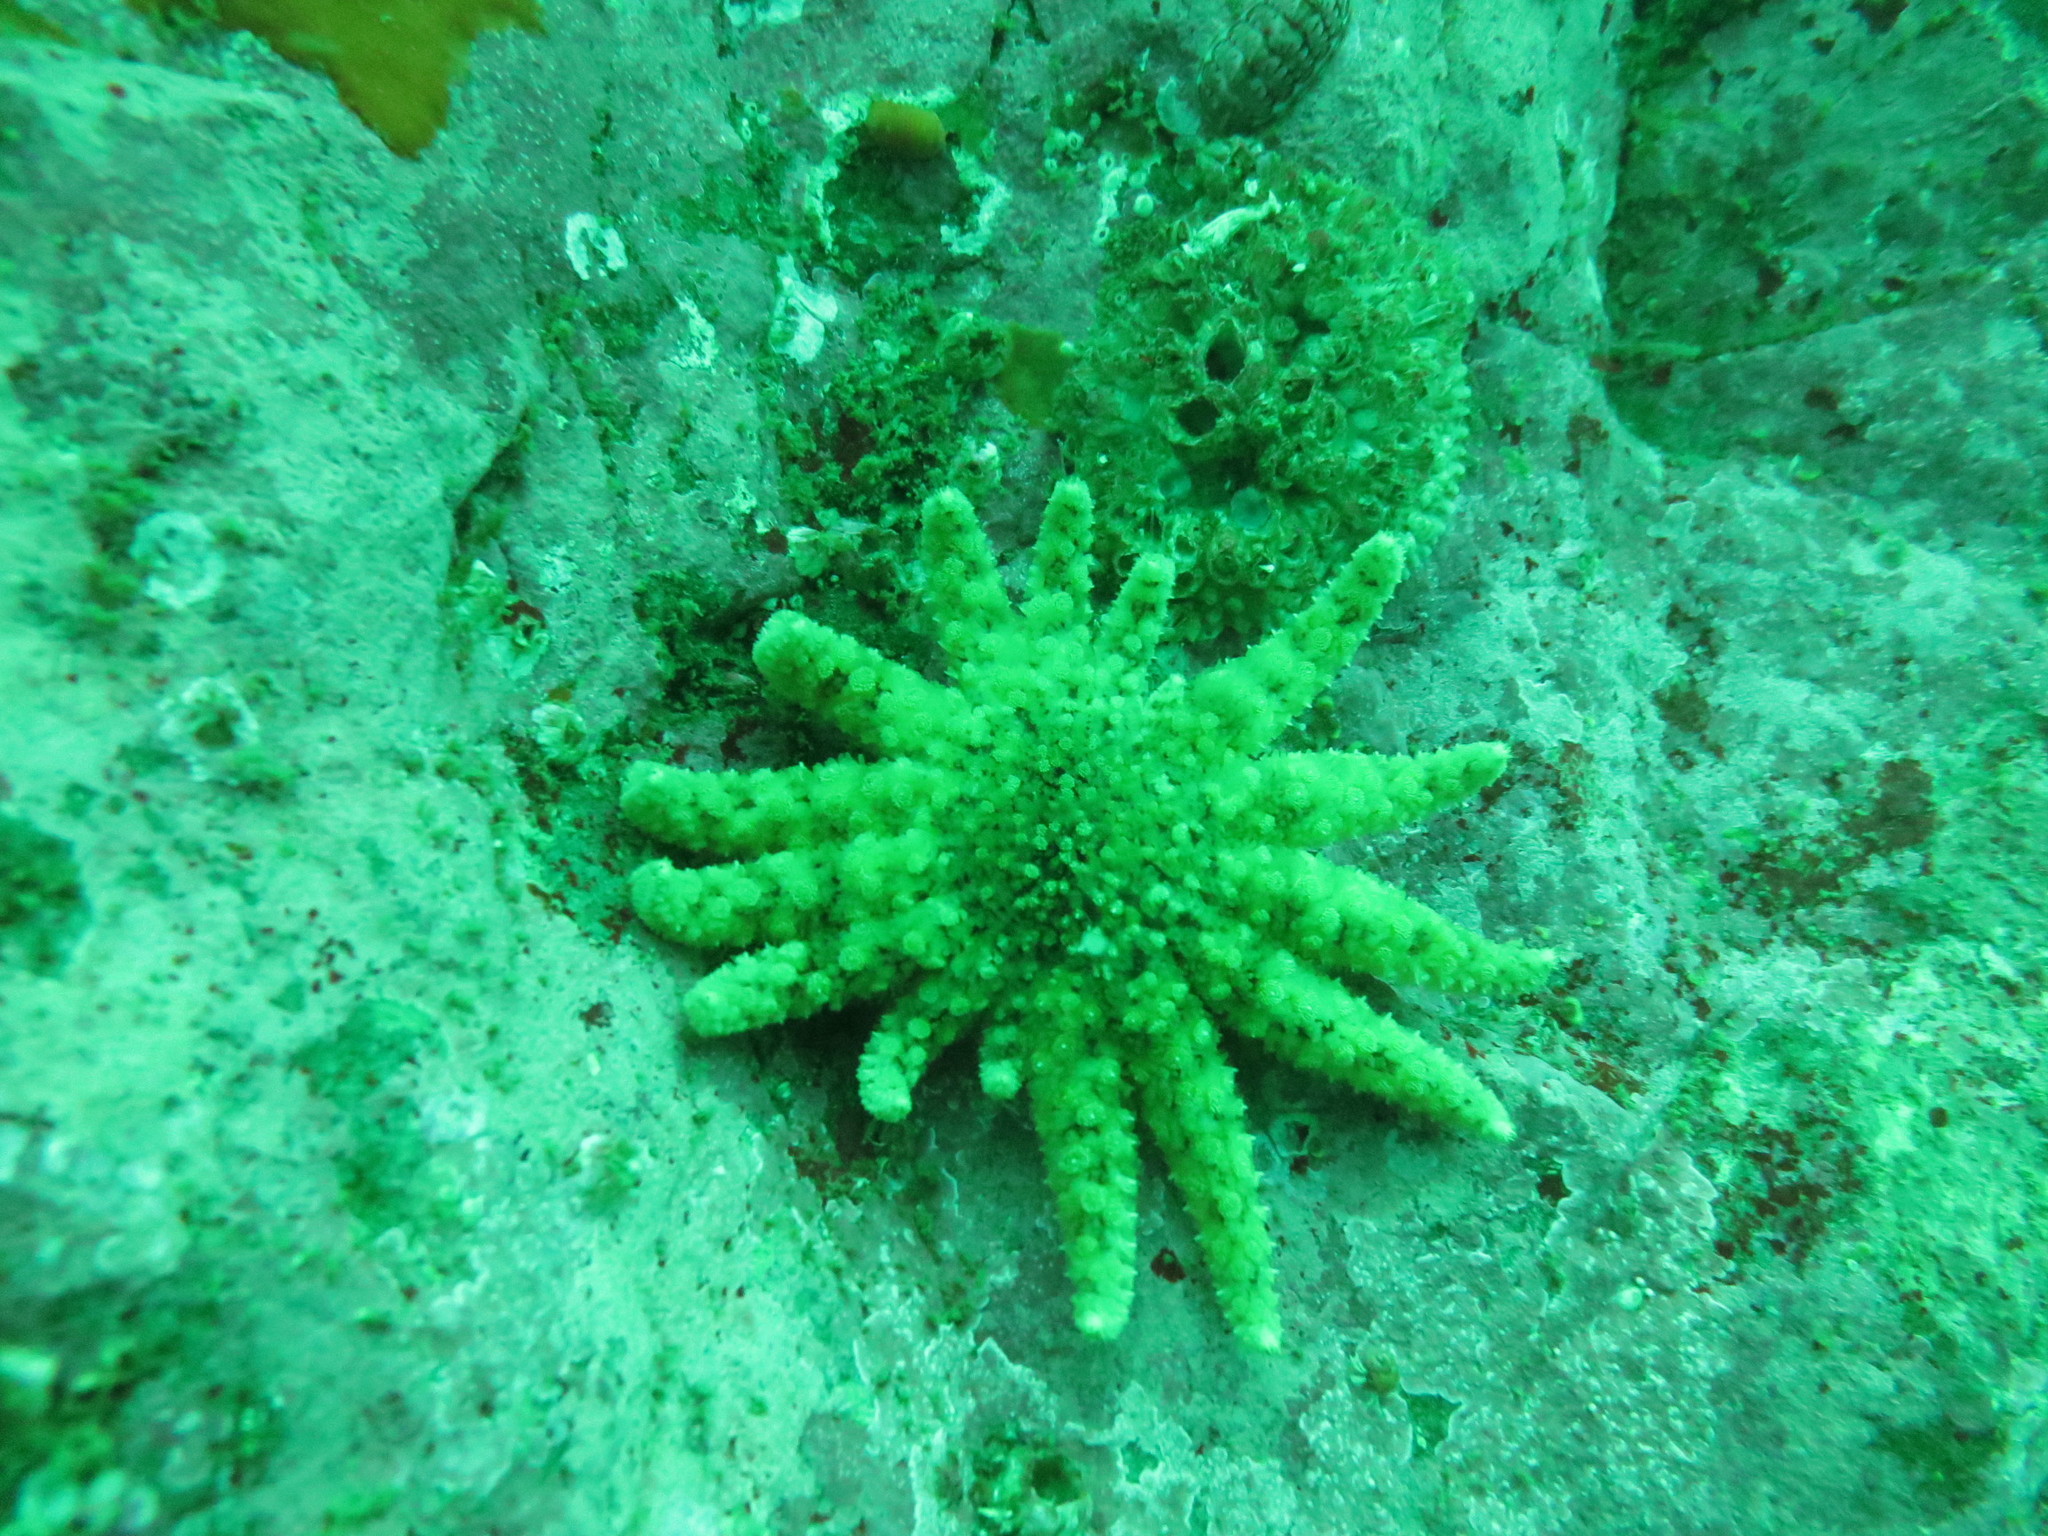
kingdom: Animalia
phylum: Echinodermata
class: Asteroidea
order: Forcipulatida
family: Asteriidae
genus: Pycnopodia
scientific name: Pycnopodia helianthoides
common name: Rag mop
